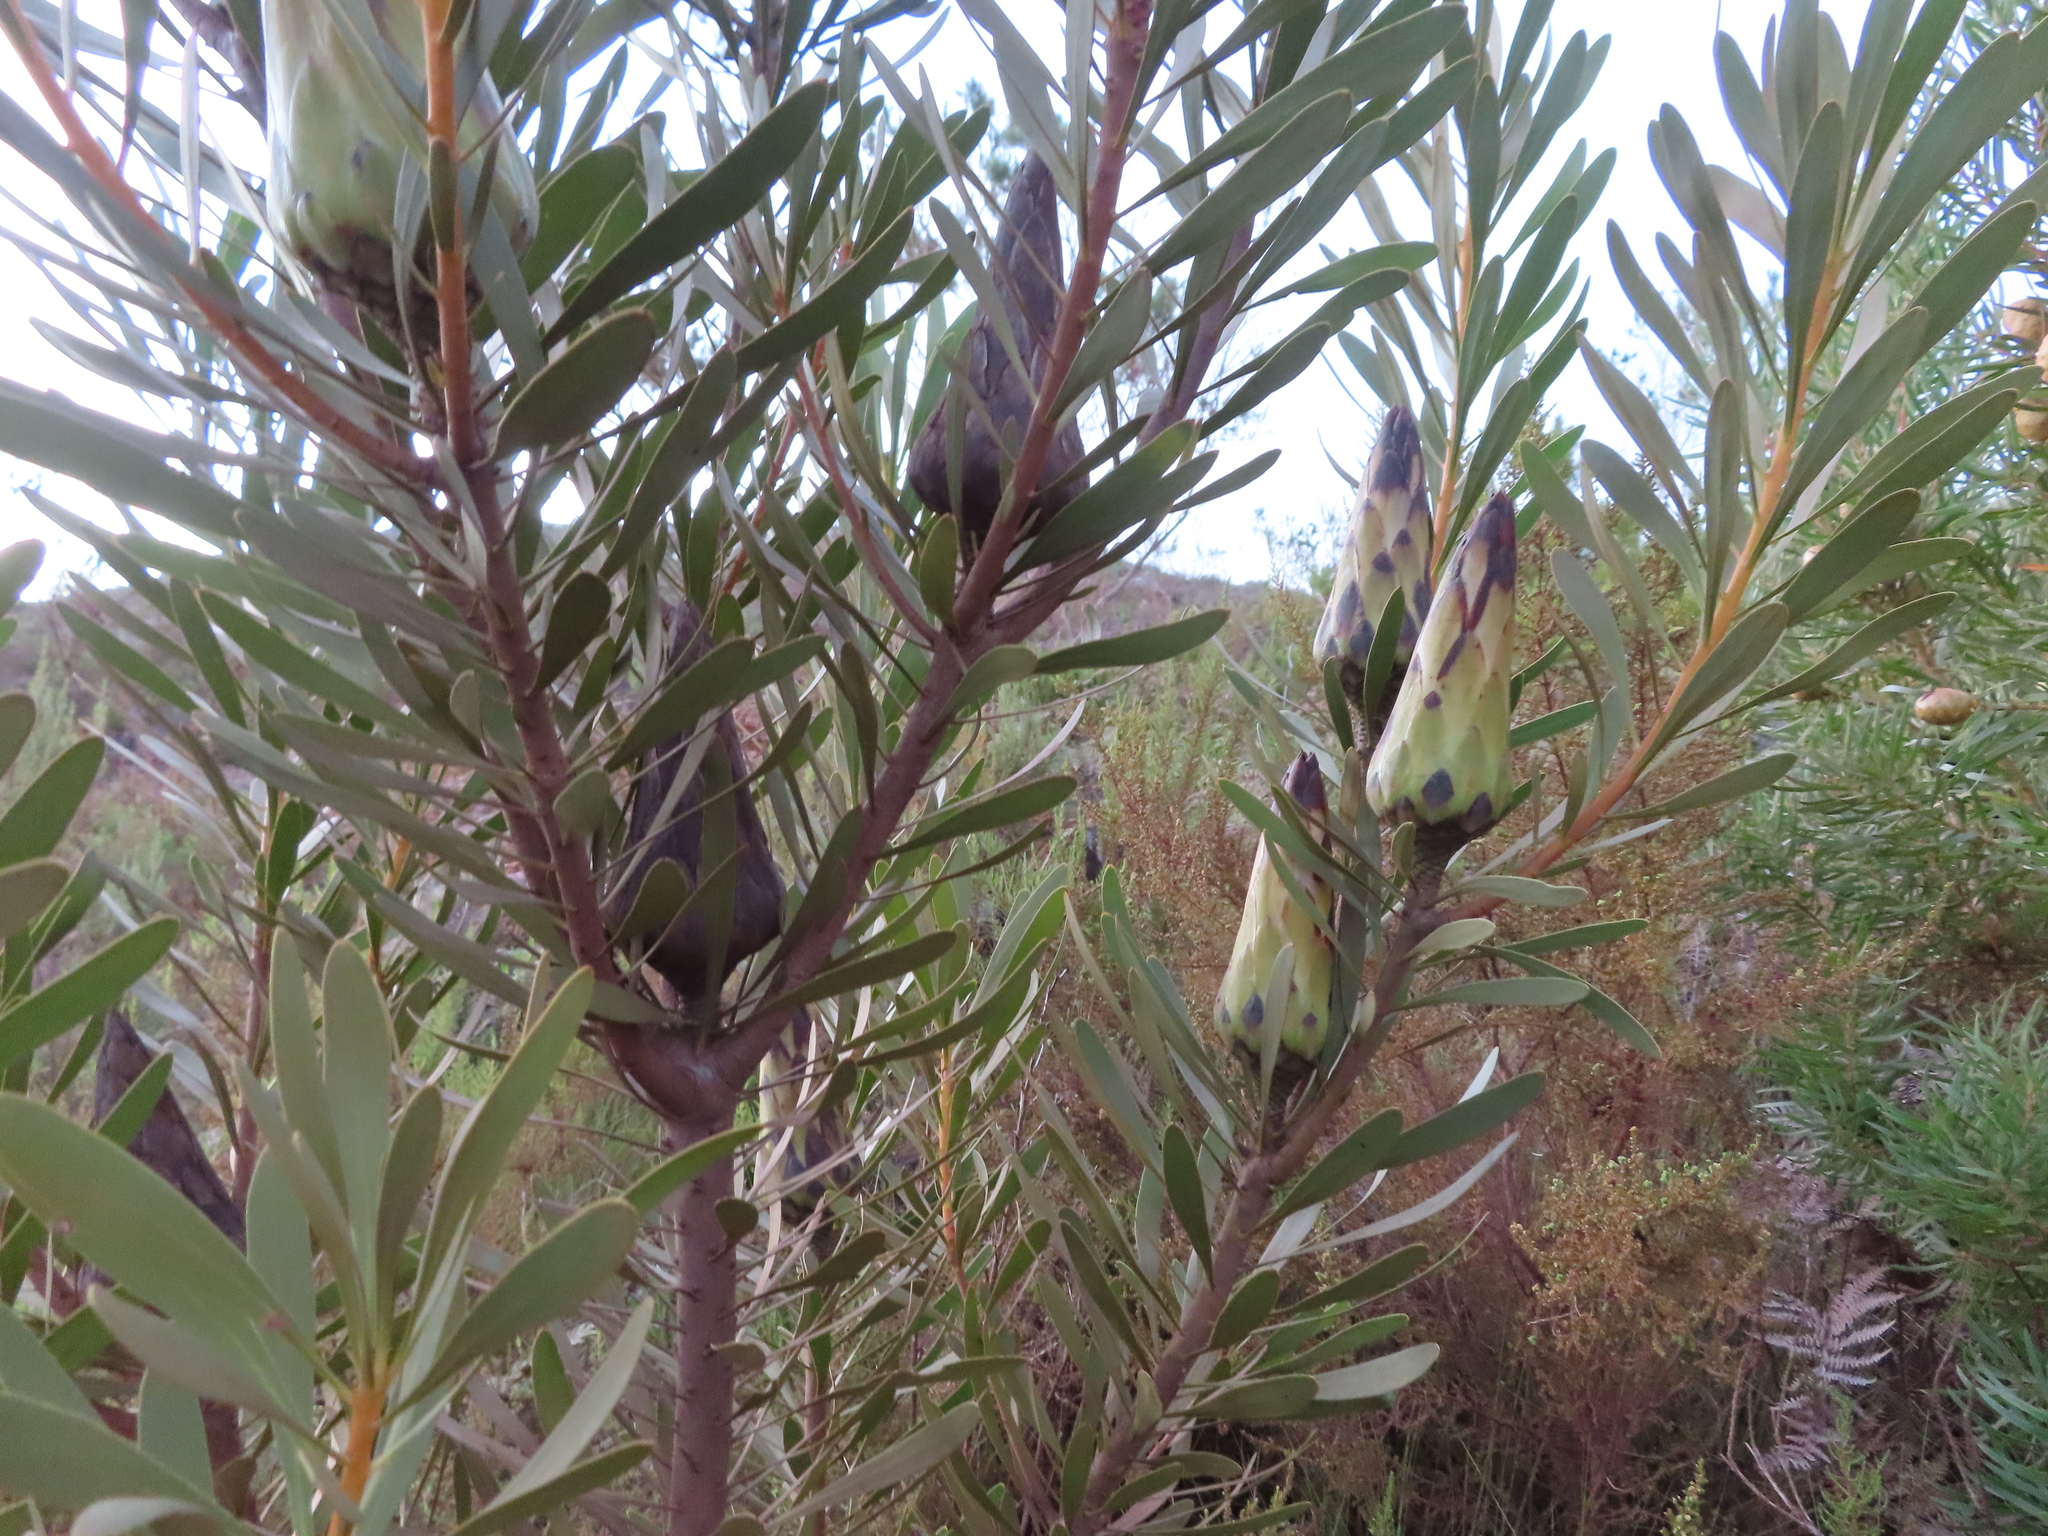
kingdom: Plantae
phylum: Tracheophyta
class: Magnoliopsida
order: Proteales
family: Proteaceae
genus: Protea
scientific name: Protea repens
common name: Sugarbush
